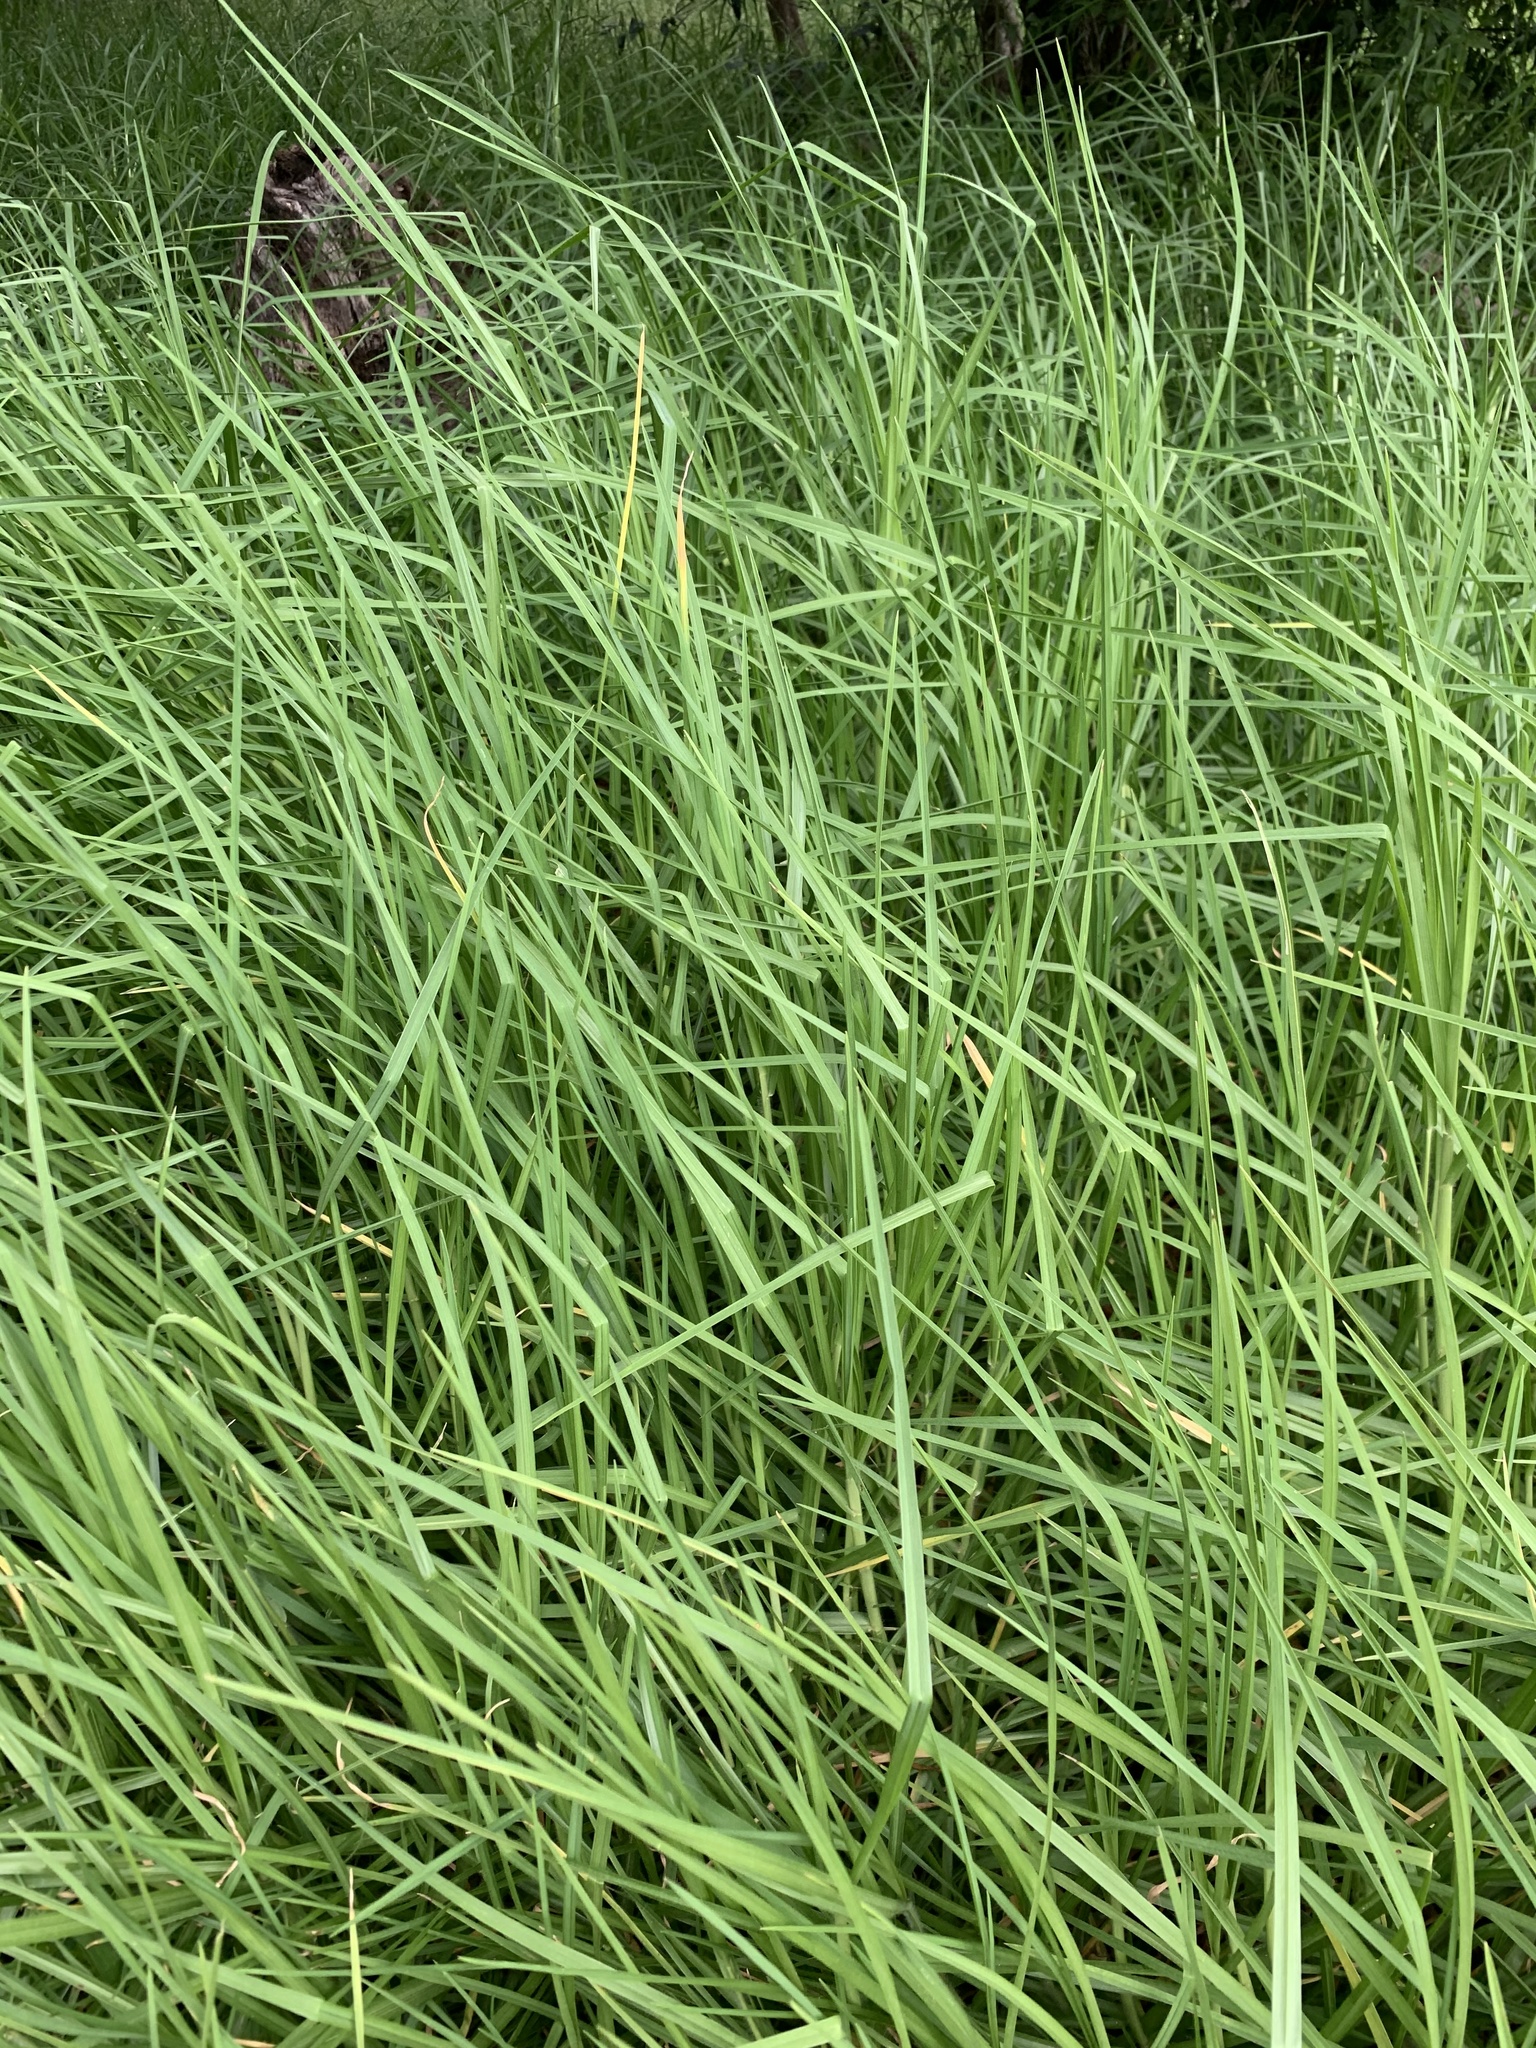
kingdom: Plantae
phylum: Tracheophyta
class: Liliopsida
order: Poales
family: Poaceae
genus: Cenchrus
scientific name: Cenchrus clandestinus
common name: Kikuyugrass
